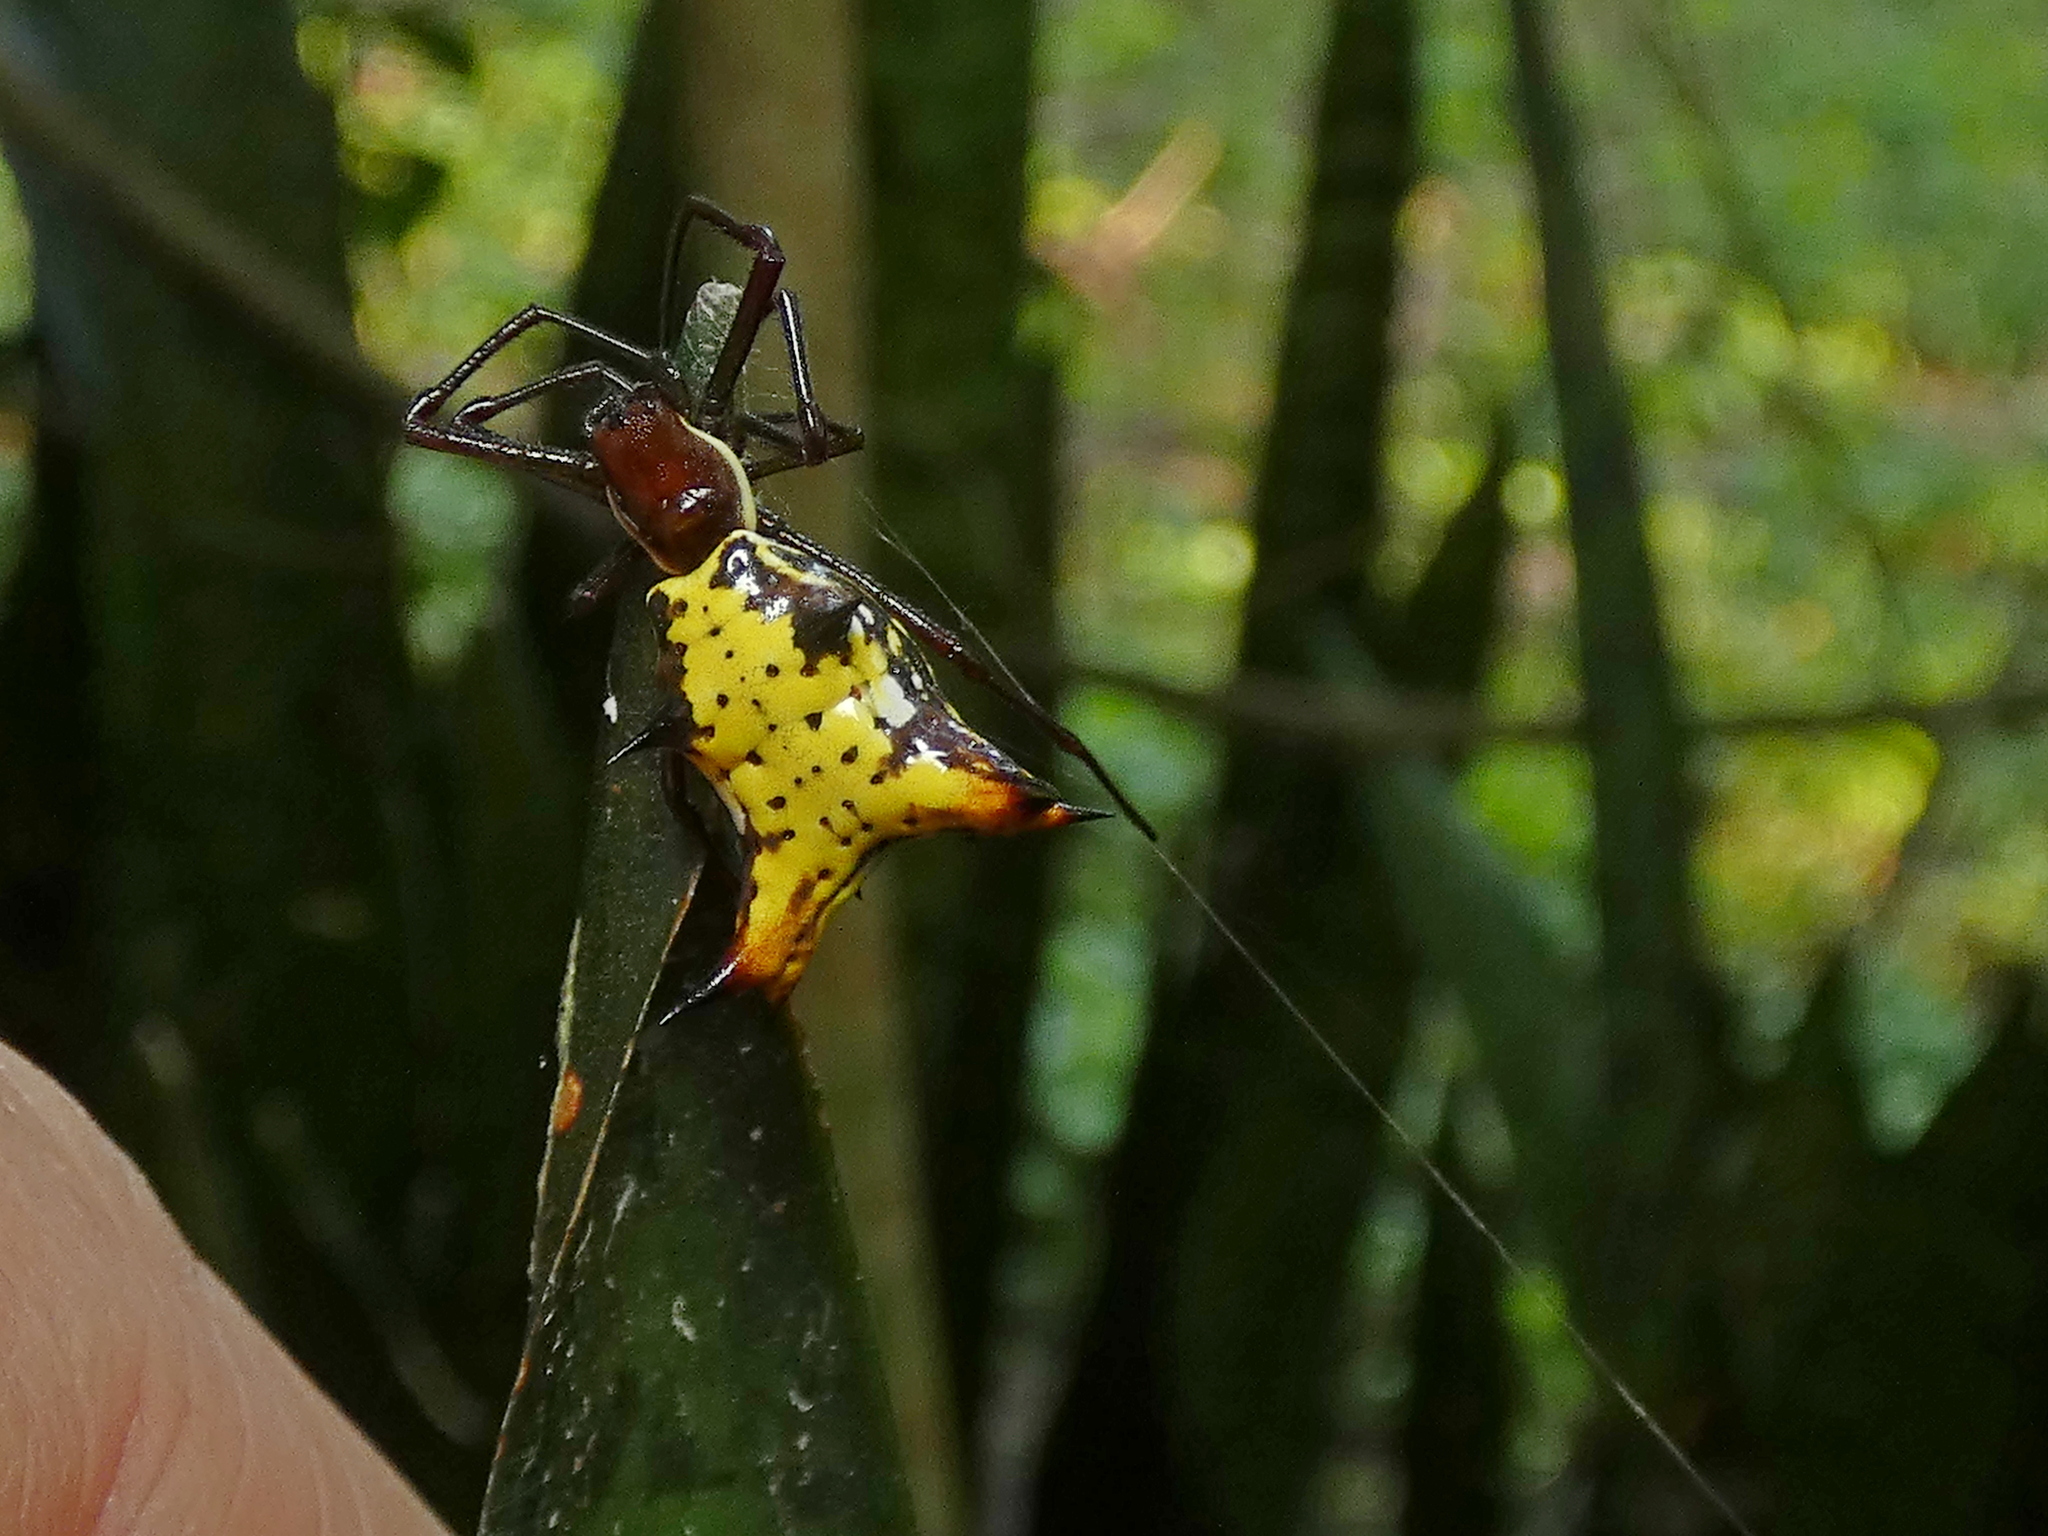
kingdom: Animalia
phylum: Arthropoda
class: Arachnida
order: Araneae
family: Araneidae
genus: Micrathena
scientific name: Micrathena fissispina
